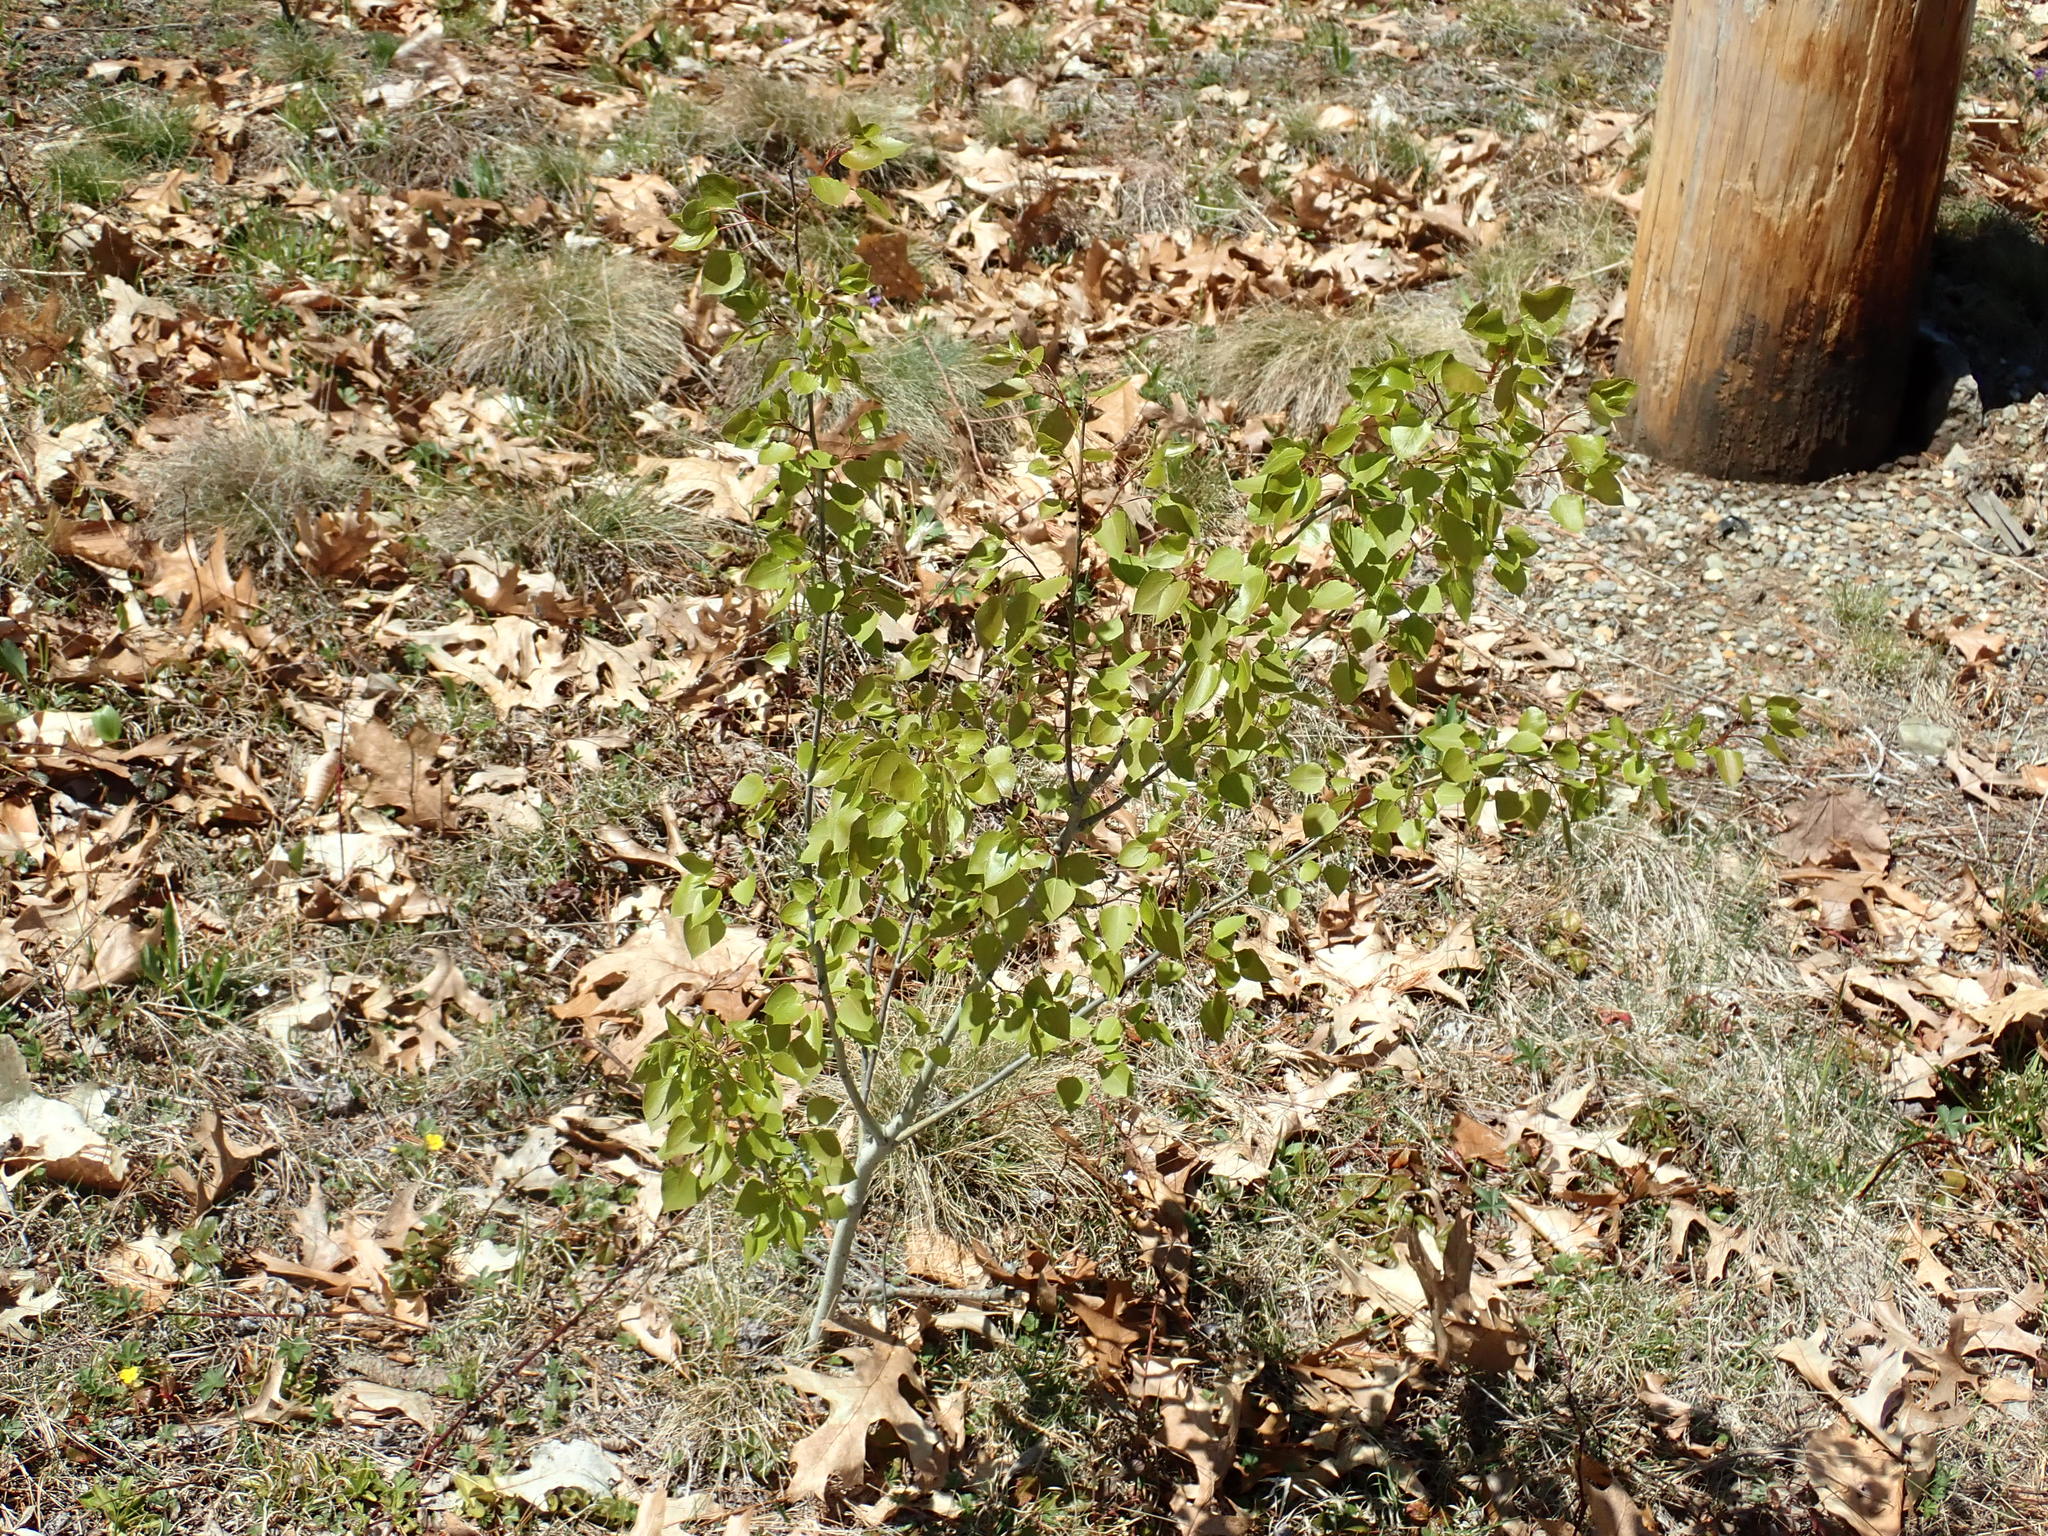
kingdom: Plantae
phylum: Tracheophyta
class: Magnoliopsida
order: Malpighiales
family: Salicaceae
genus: Populus
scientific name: Populus tremuloides
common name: Quaking aspen
